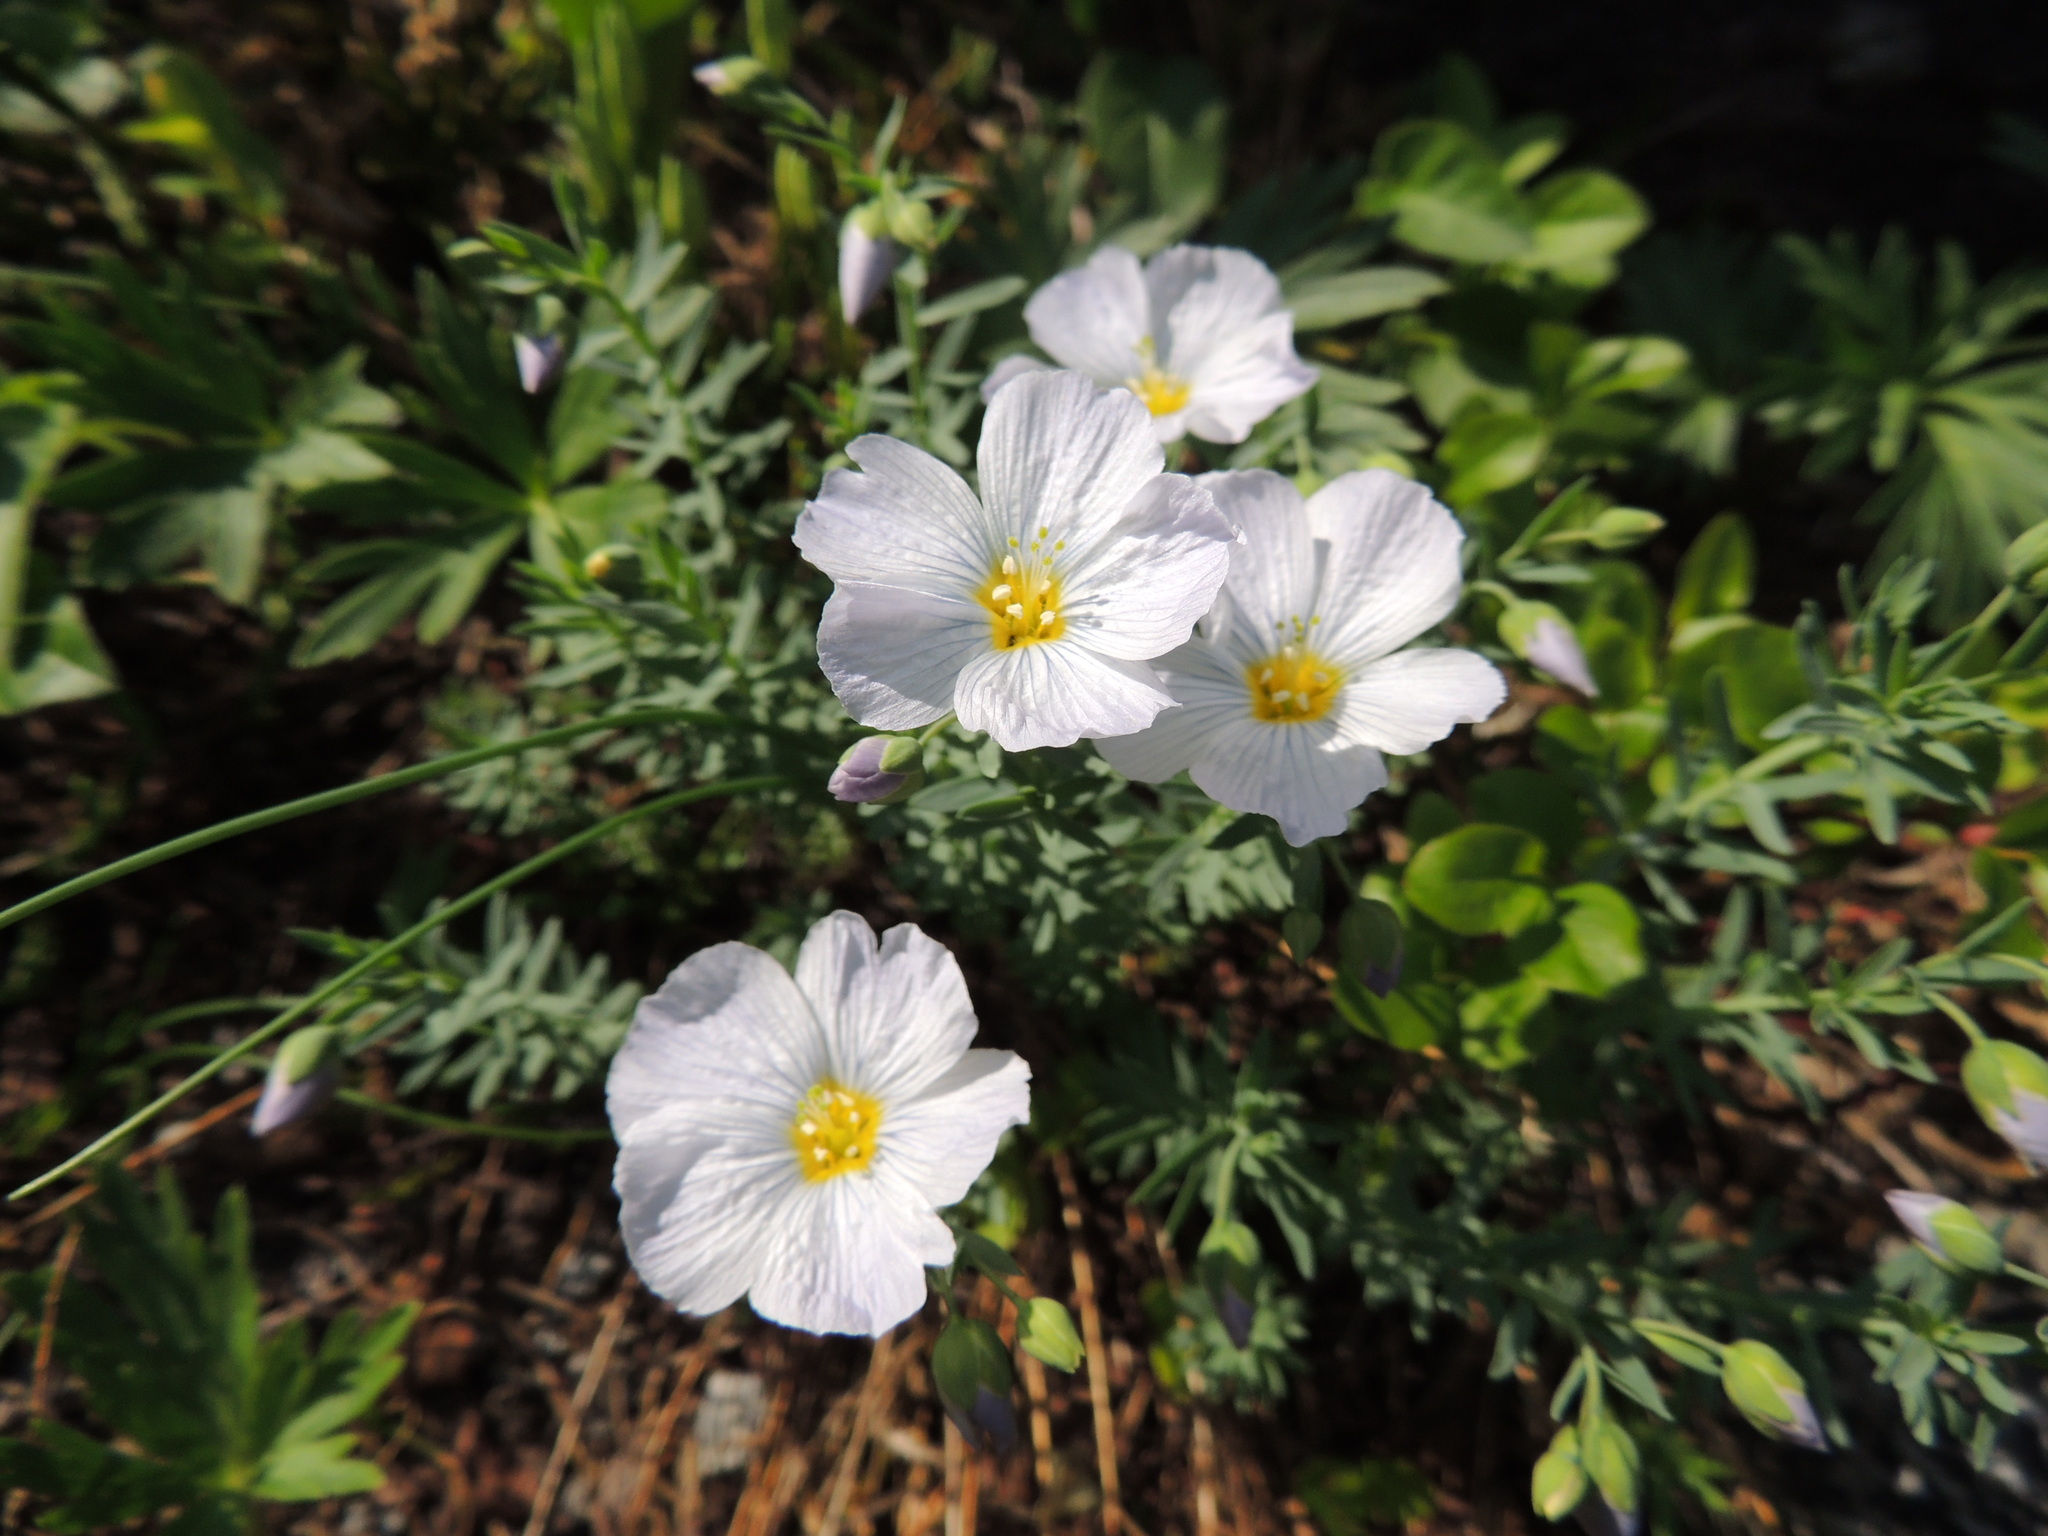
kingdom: Plantae
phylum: Tracheophyta
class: Magnoliopsida
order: Malpighiales
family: Linaceae
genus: Linum
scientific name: Linum komarovii
